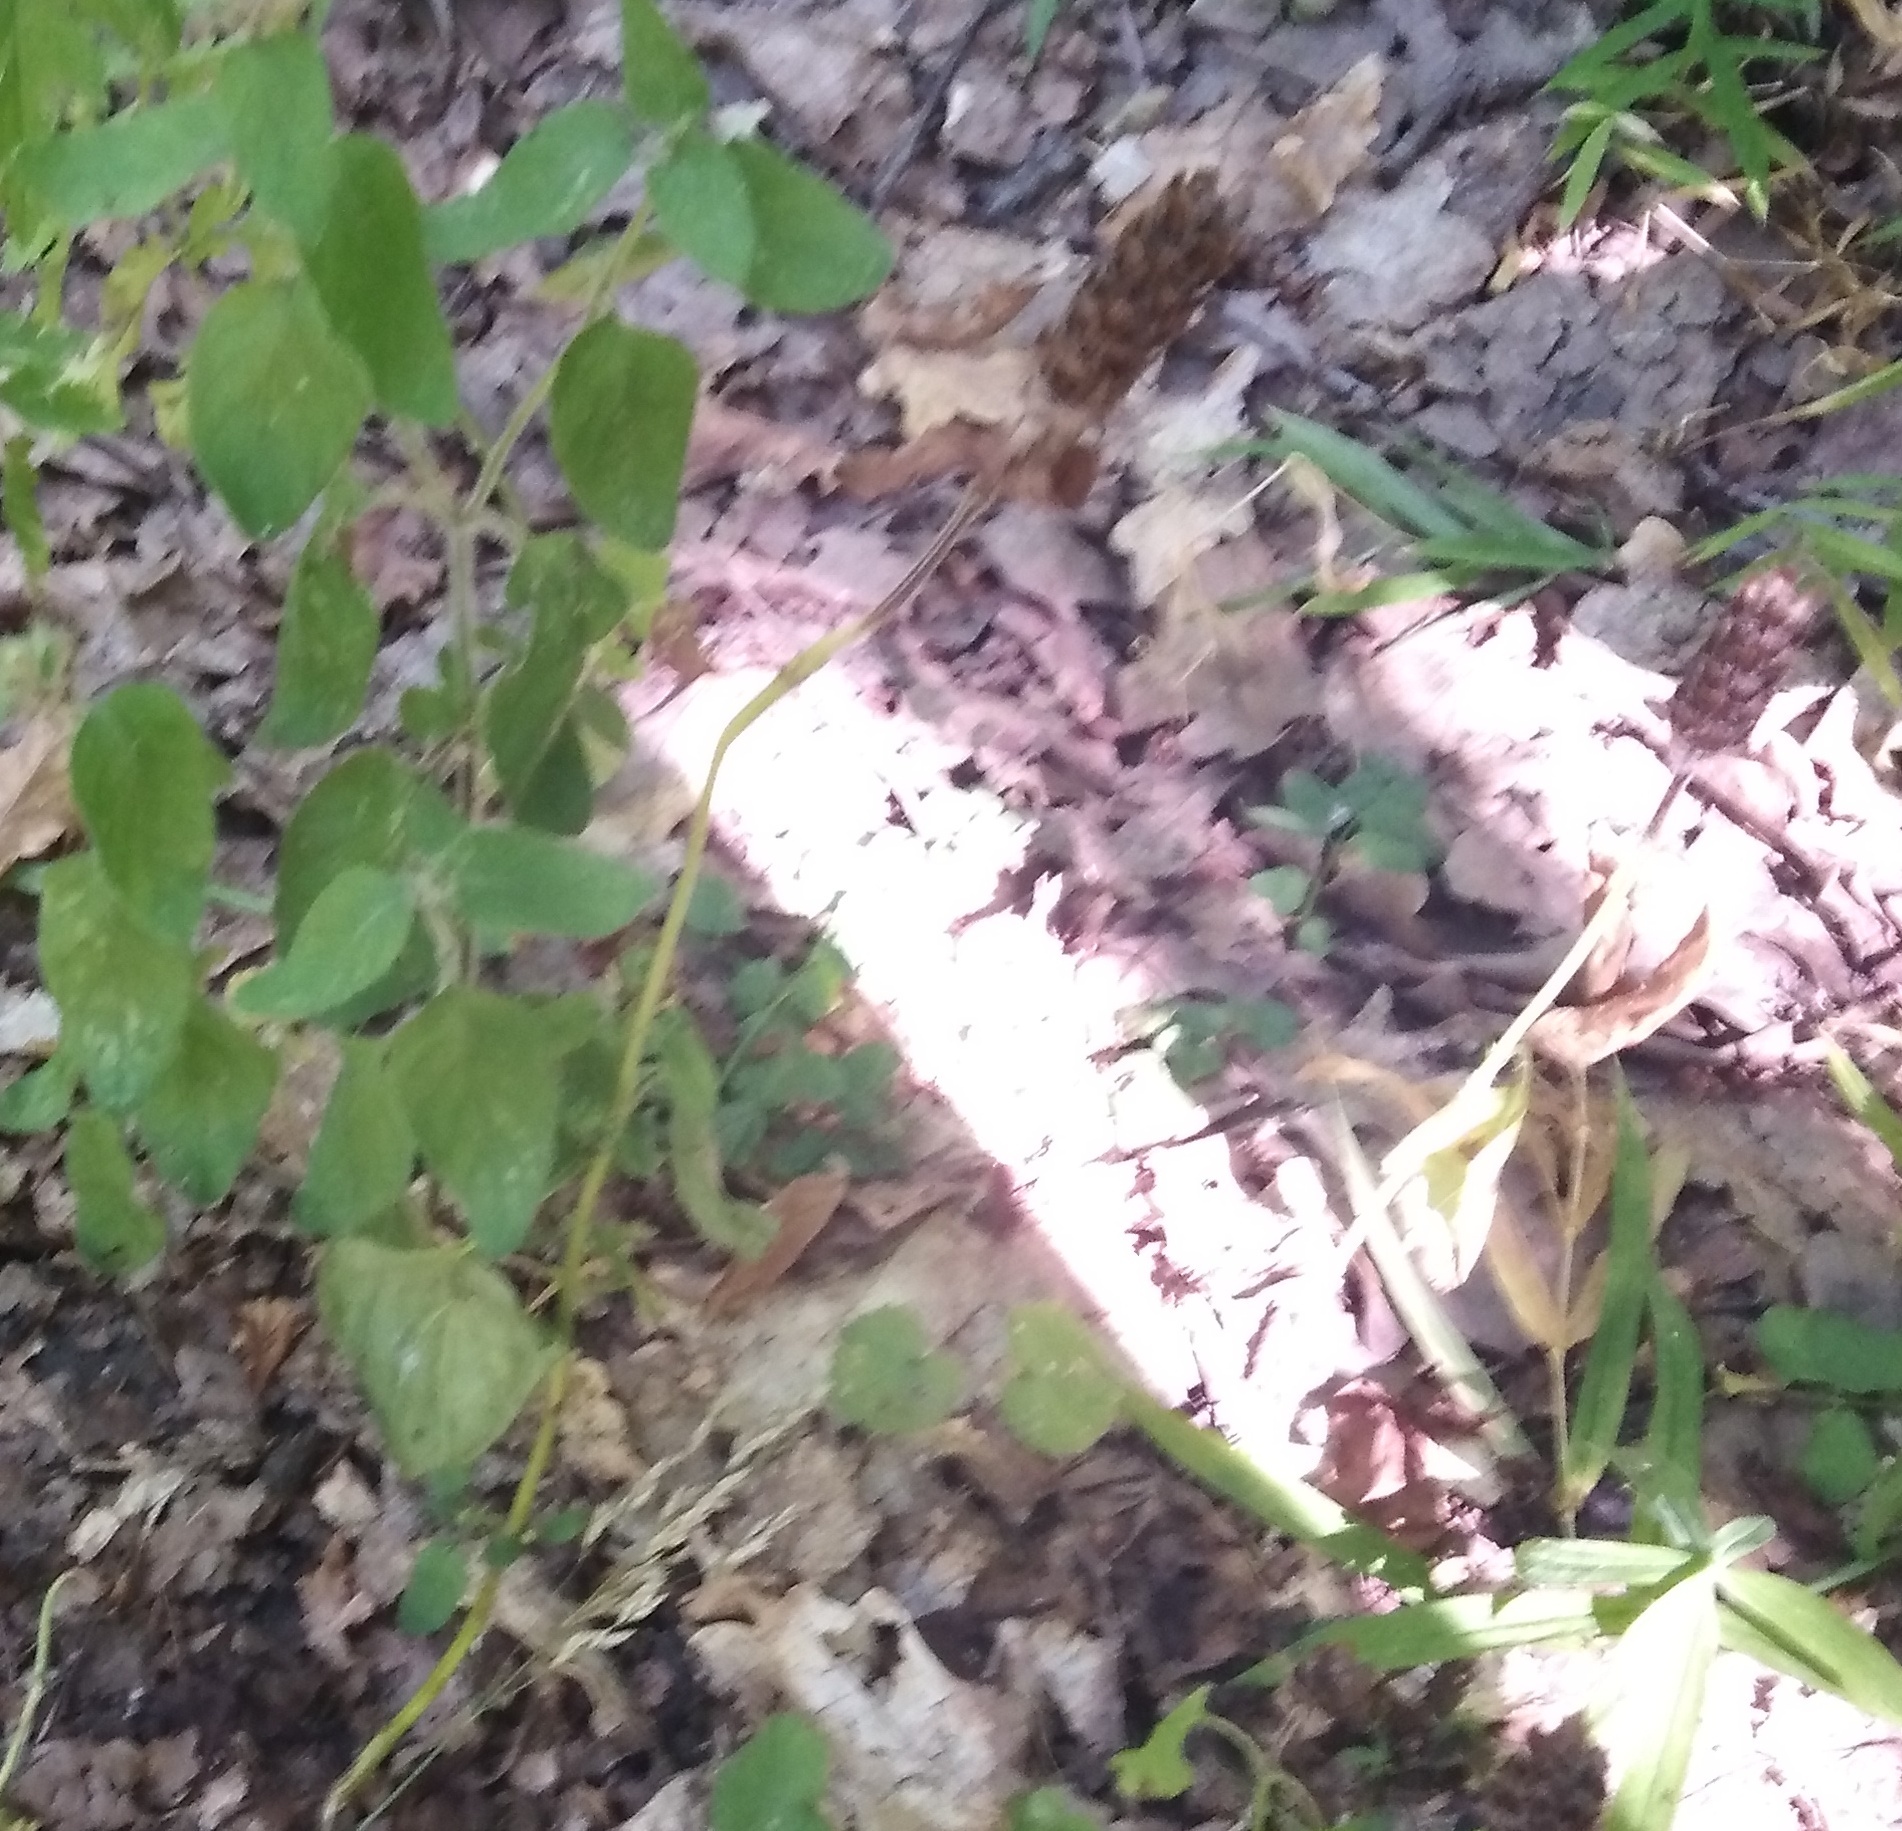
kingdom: Plantae
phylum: Tracheophyta
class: Magnoliopsida
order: Lamiales
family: Lamiaceae
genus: Prunella
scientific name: Prunella vulgaris
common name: Heal-all
